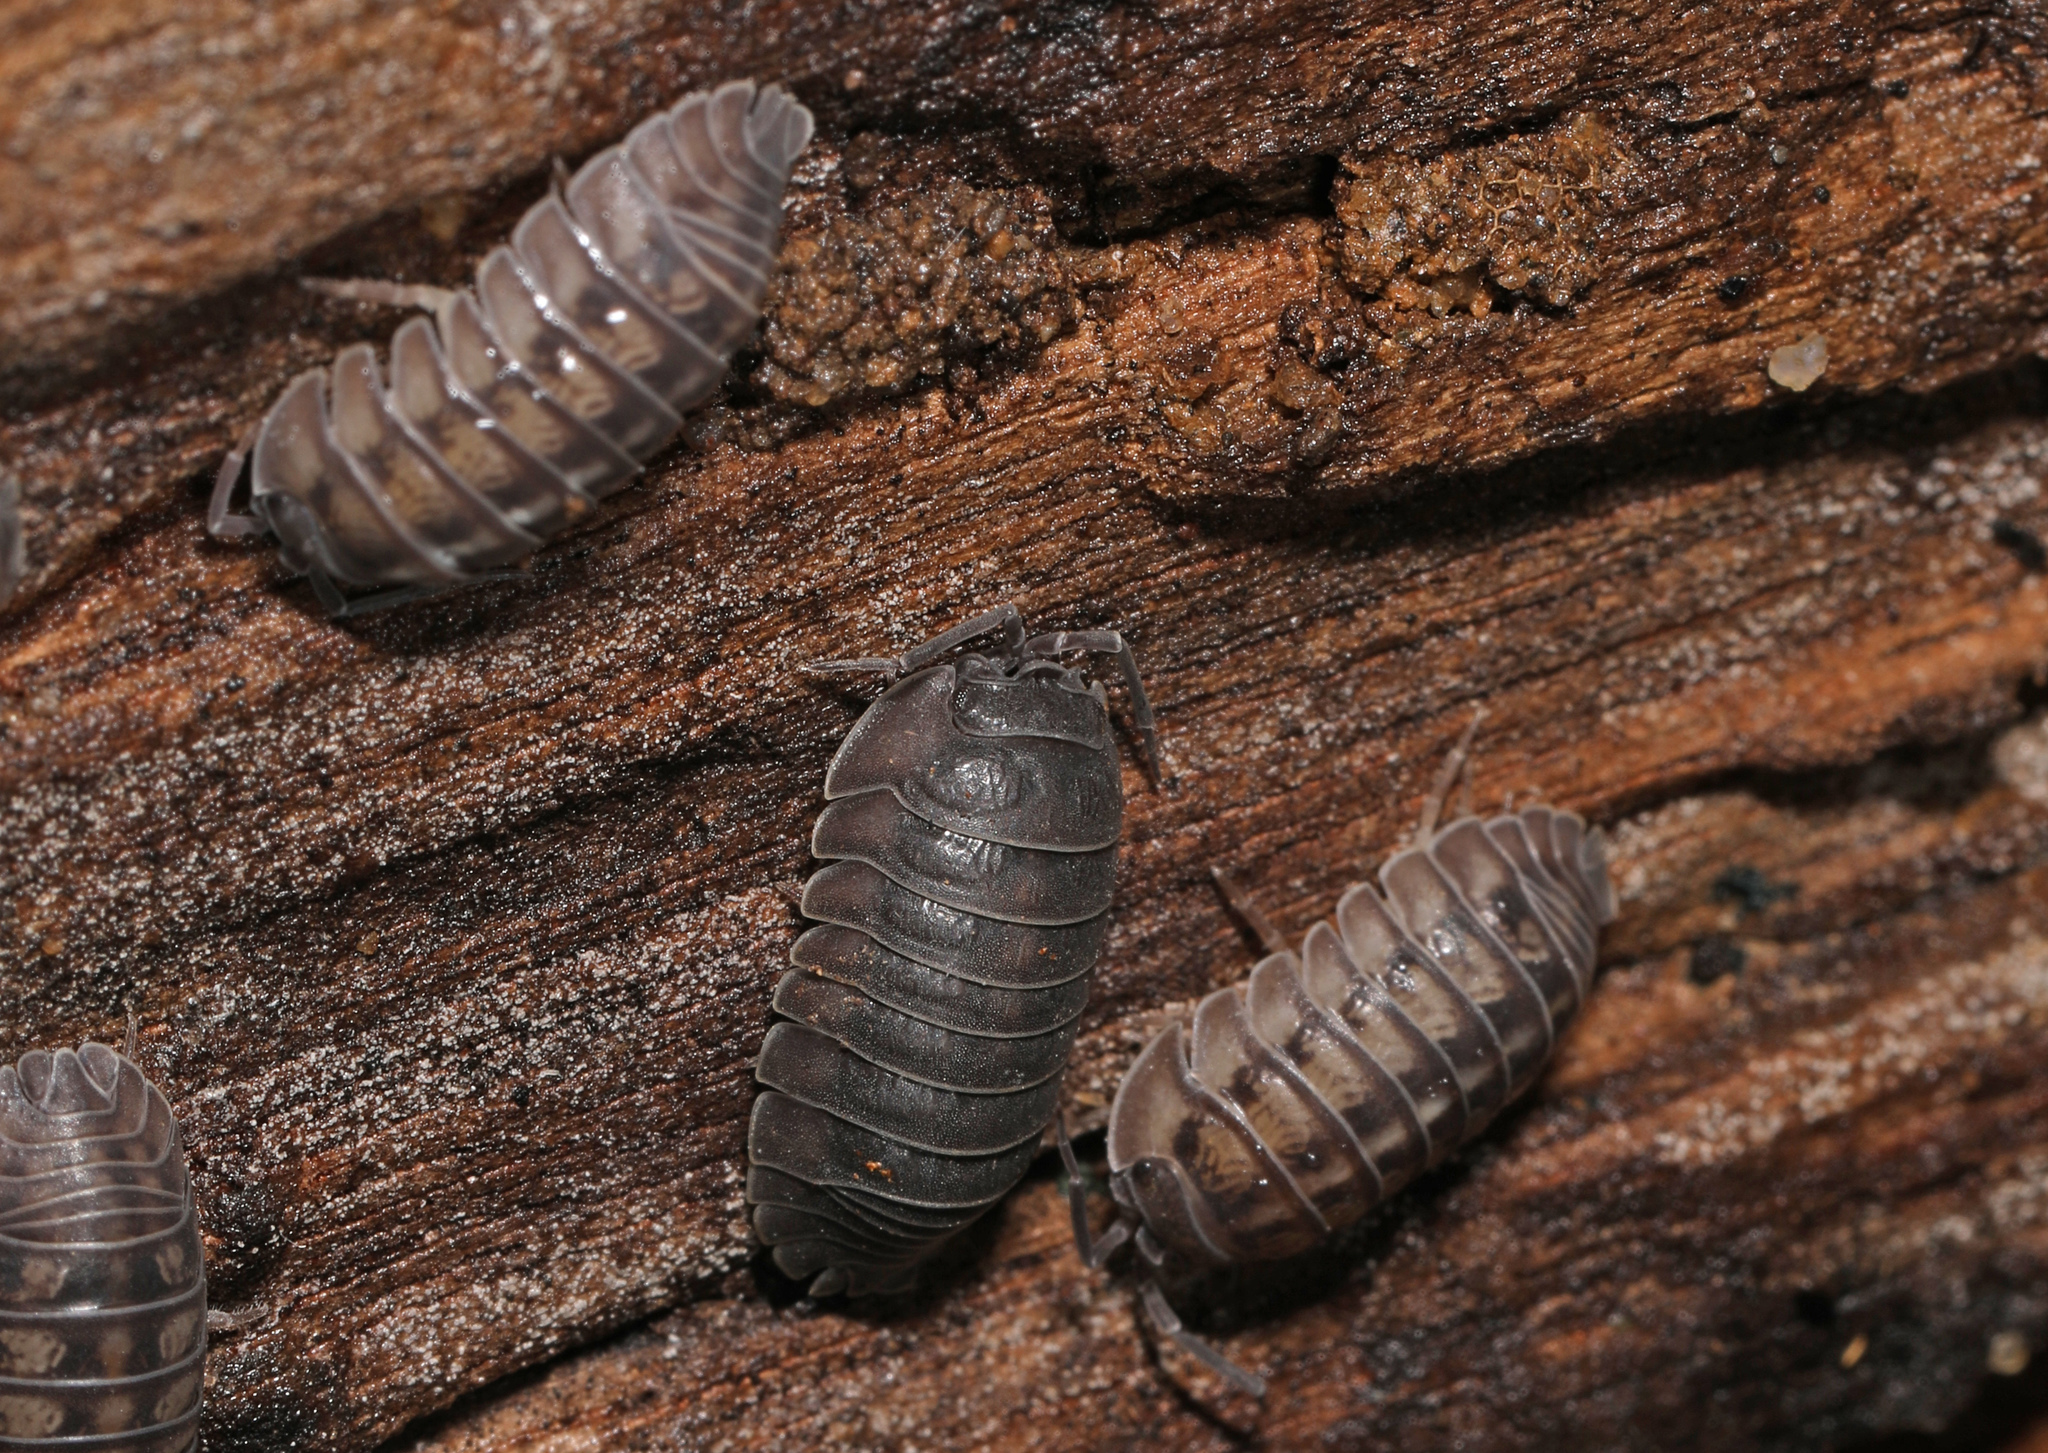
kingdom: Animalia
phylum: Arthropoda
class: Malacostraca
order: Isopoda
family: Armadillidiidae
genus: Armadillidium
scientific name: Armadillidium nasatum
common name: Isopod
